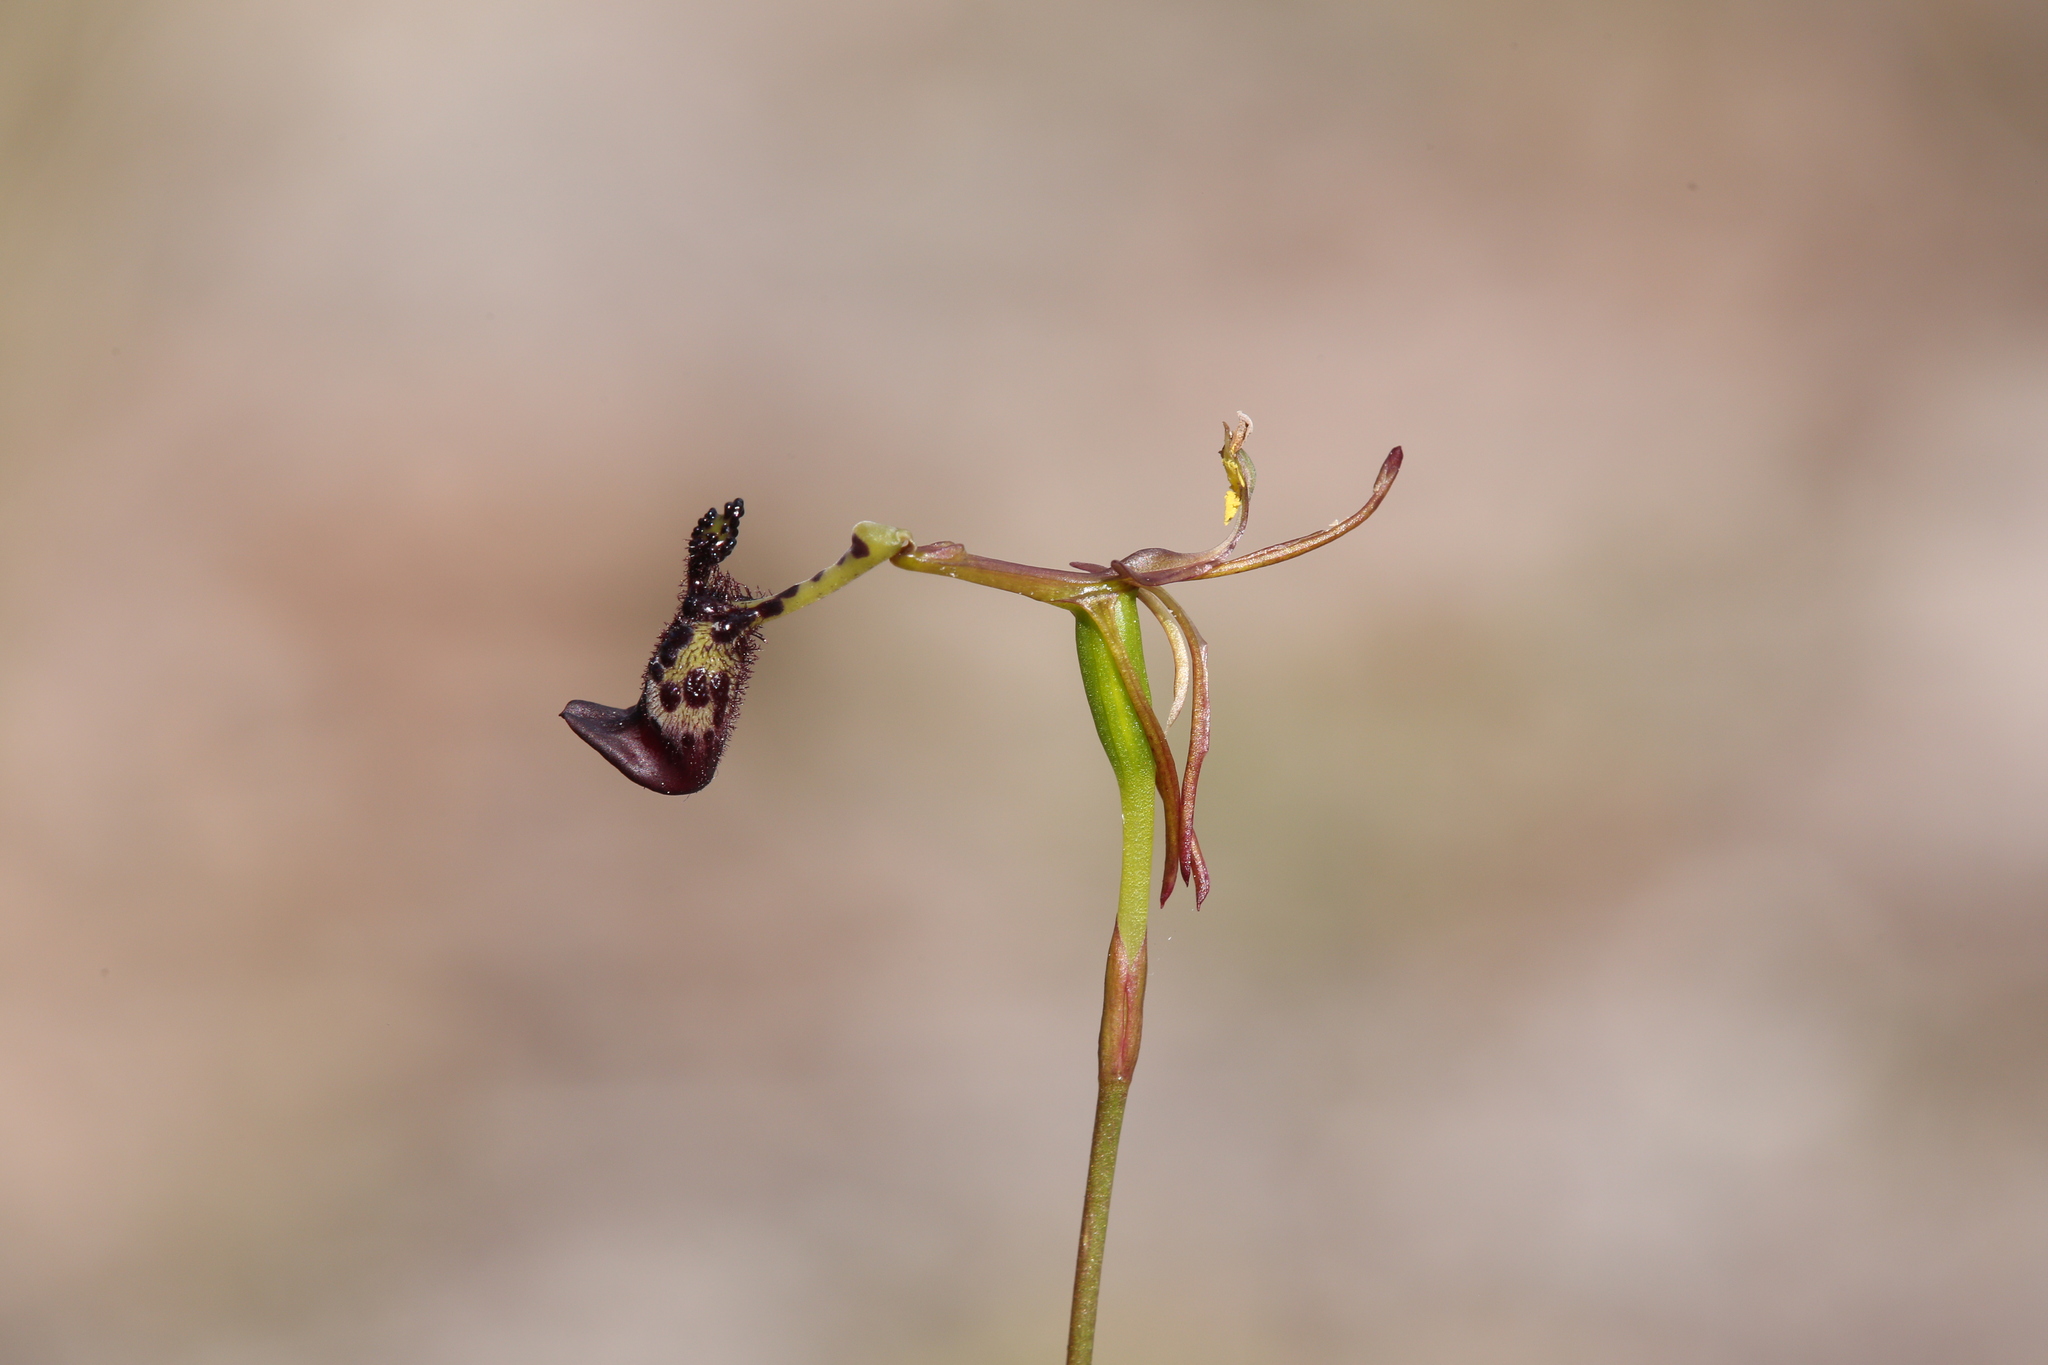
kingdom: Plantae
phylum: Tracheophyta
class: Liliopsida
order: Asparagales
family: Orchidaceae
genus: Drakaea
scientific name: Drakaea livida
